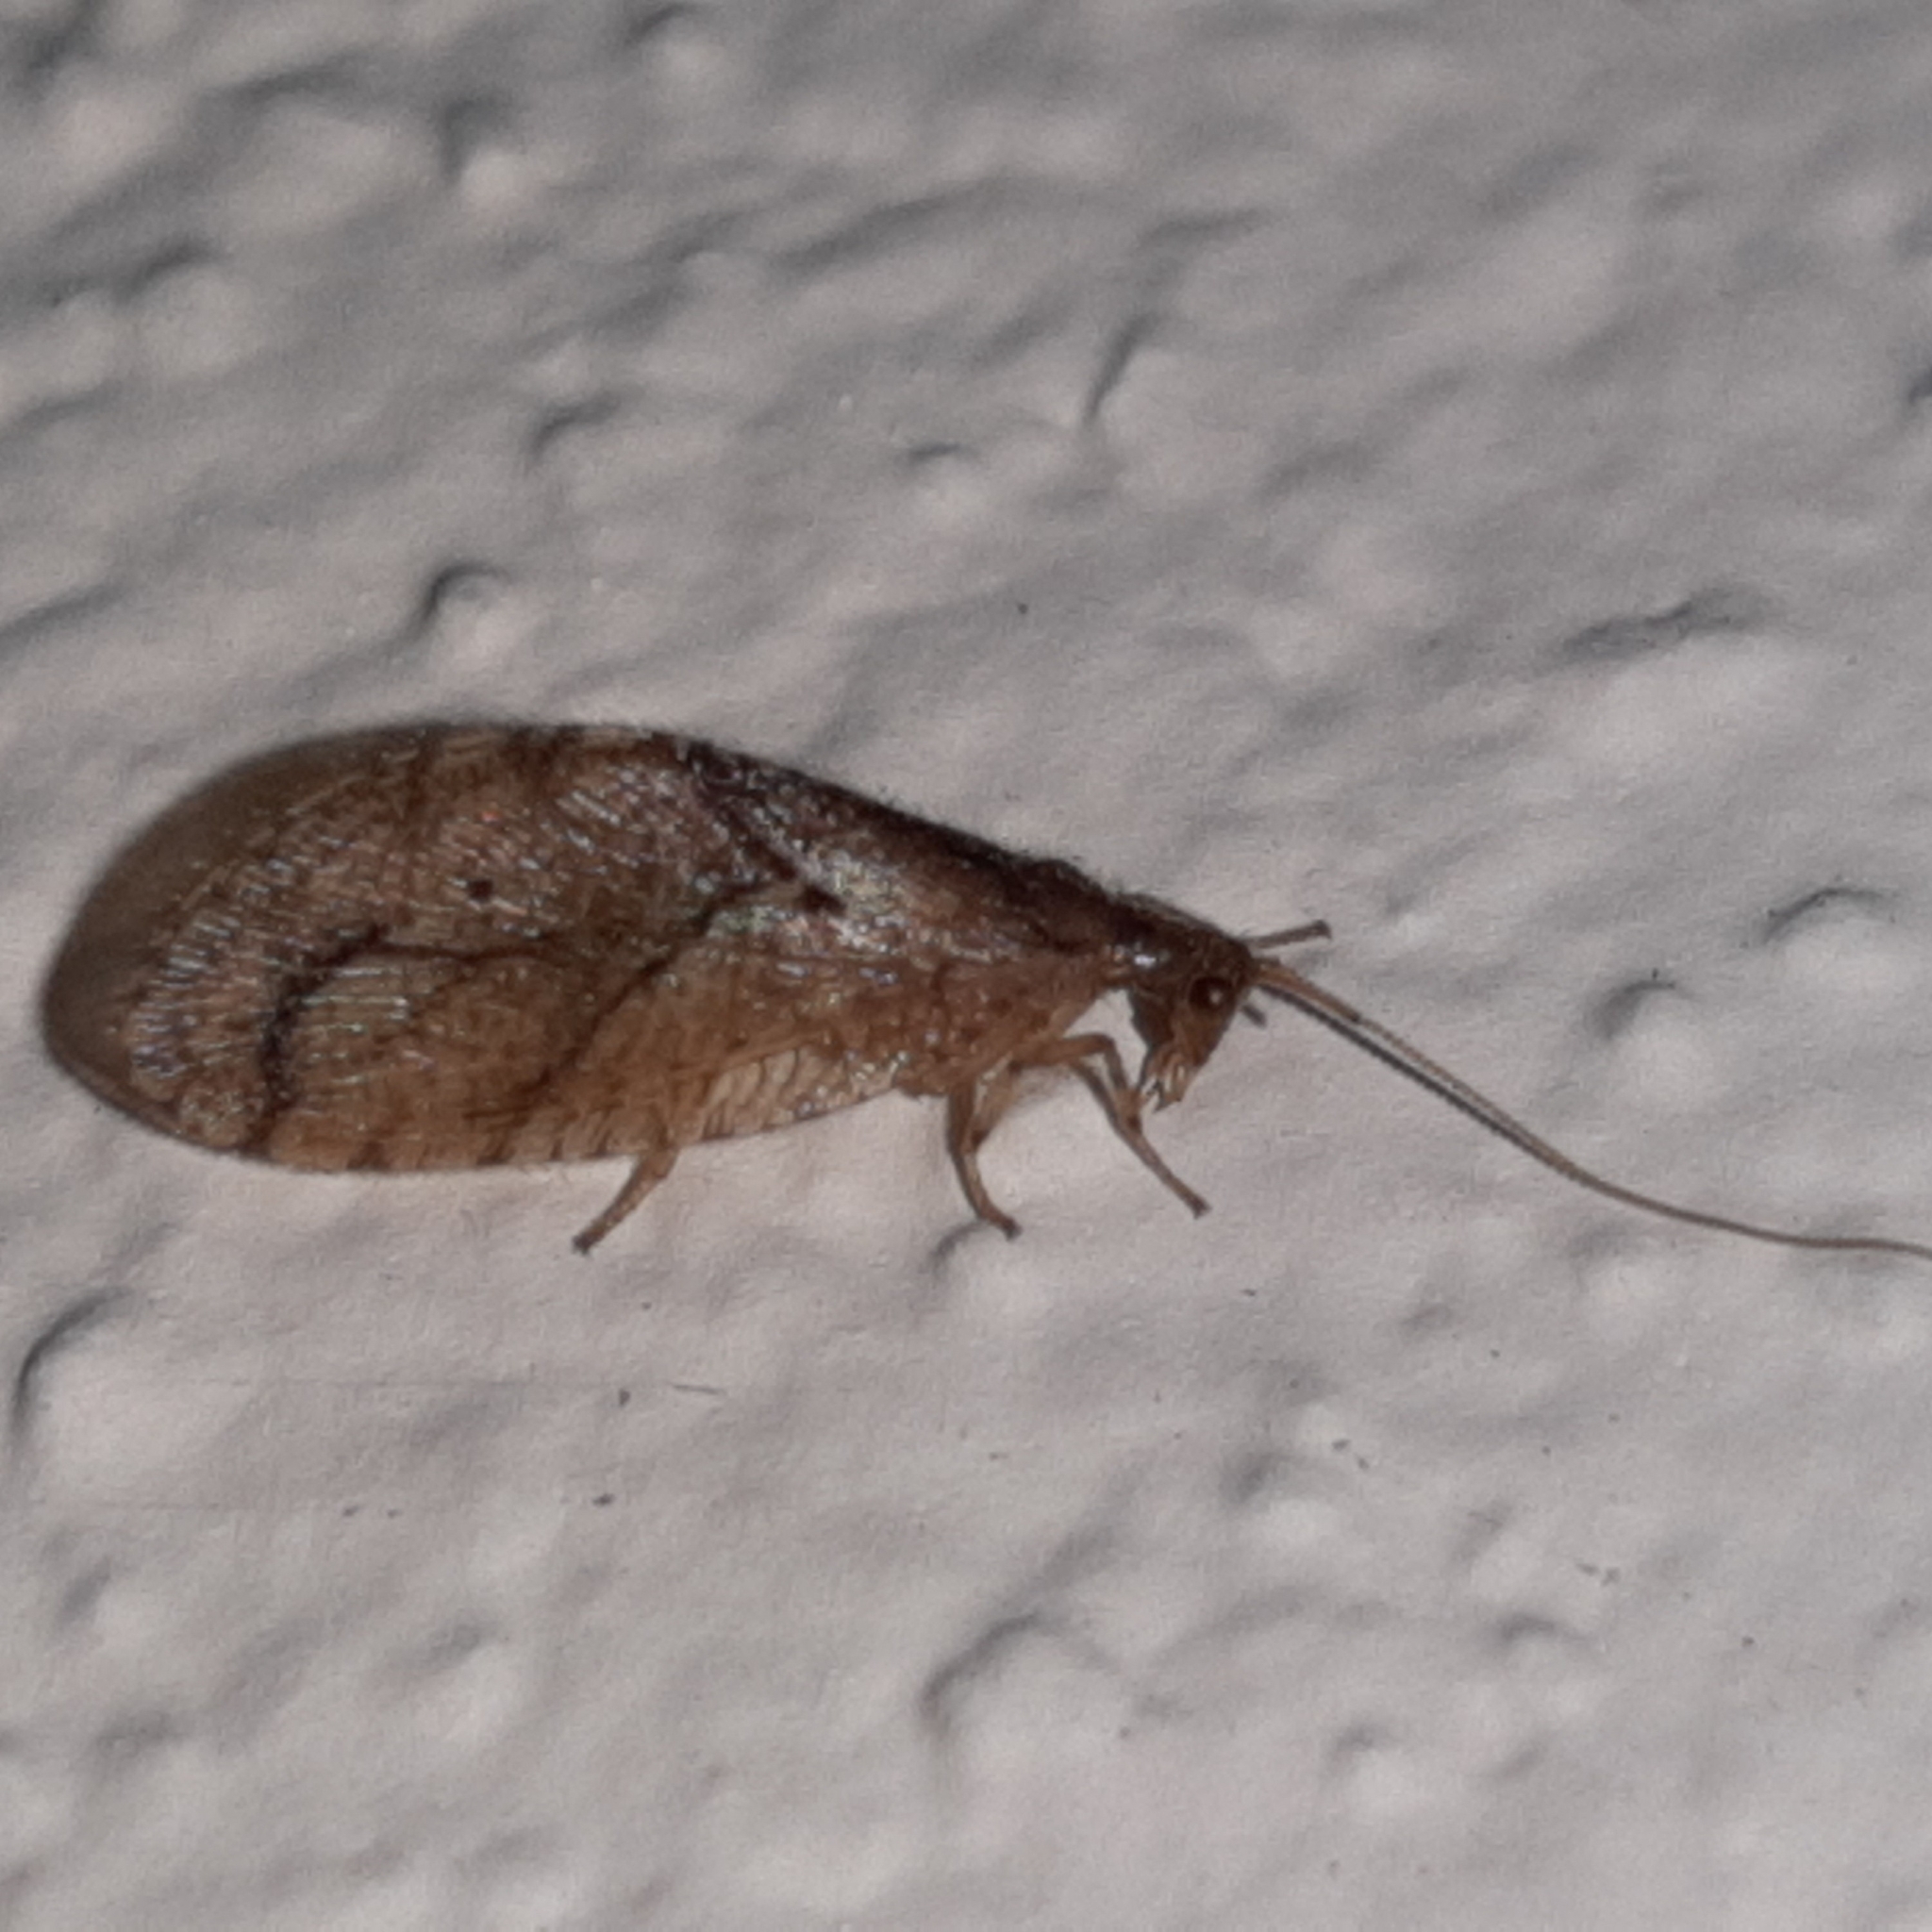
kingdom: Animalia
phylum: Arthropoda
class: Insecta
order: Neuroptera
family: Hemerobiidae
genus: Nusalala
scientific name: Nusalala uncata
